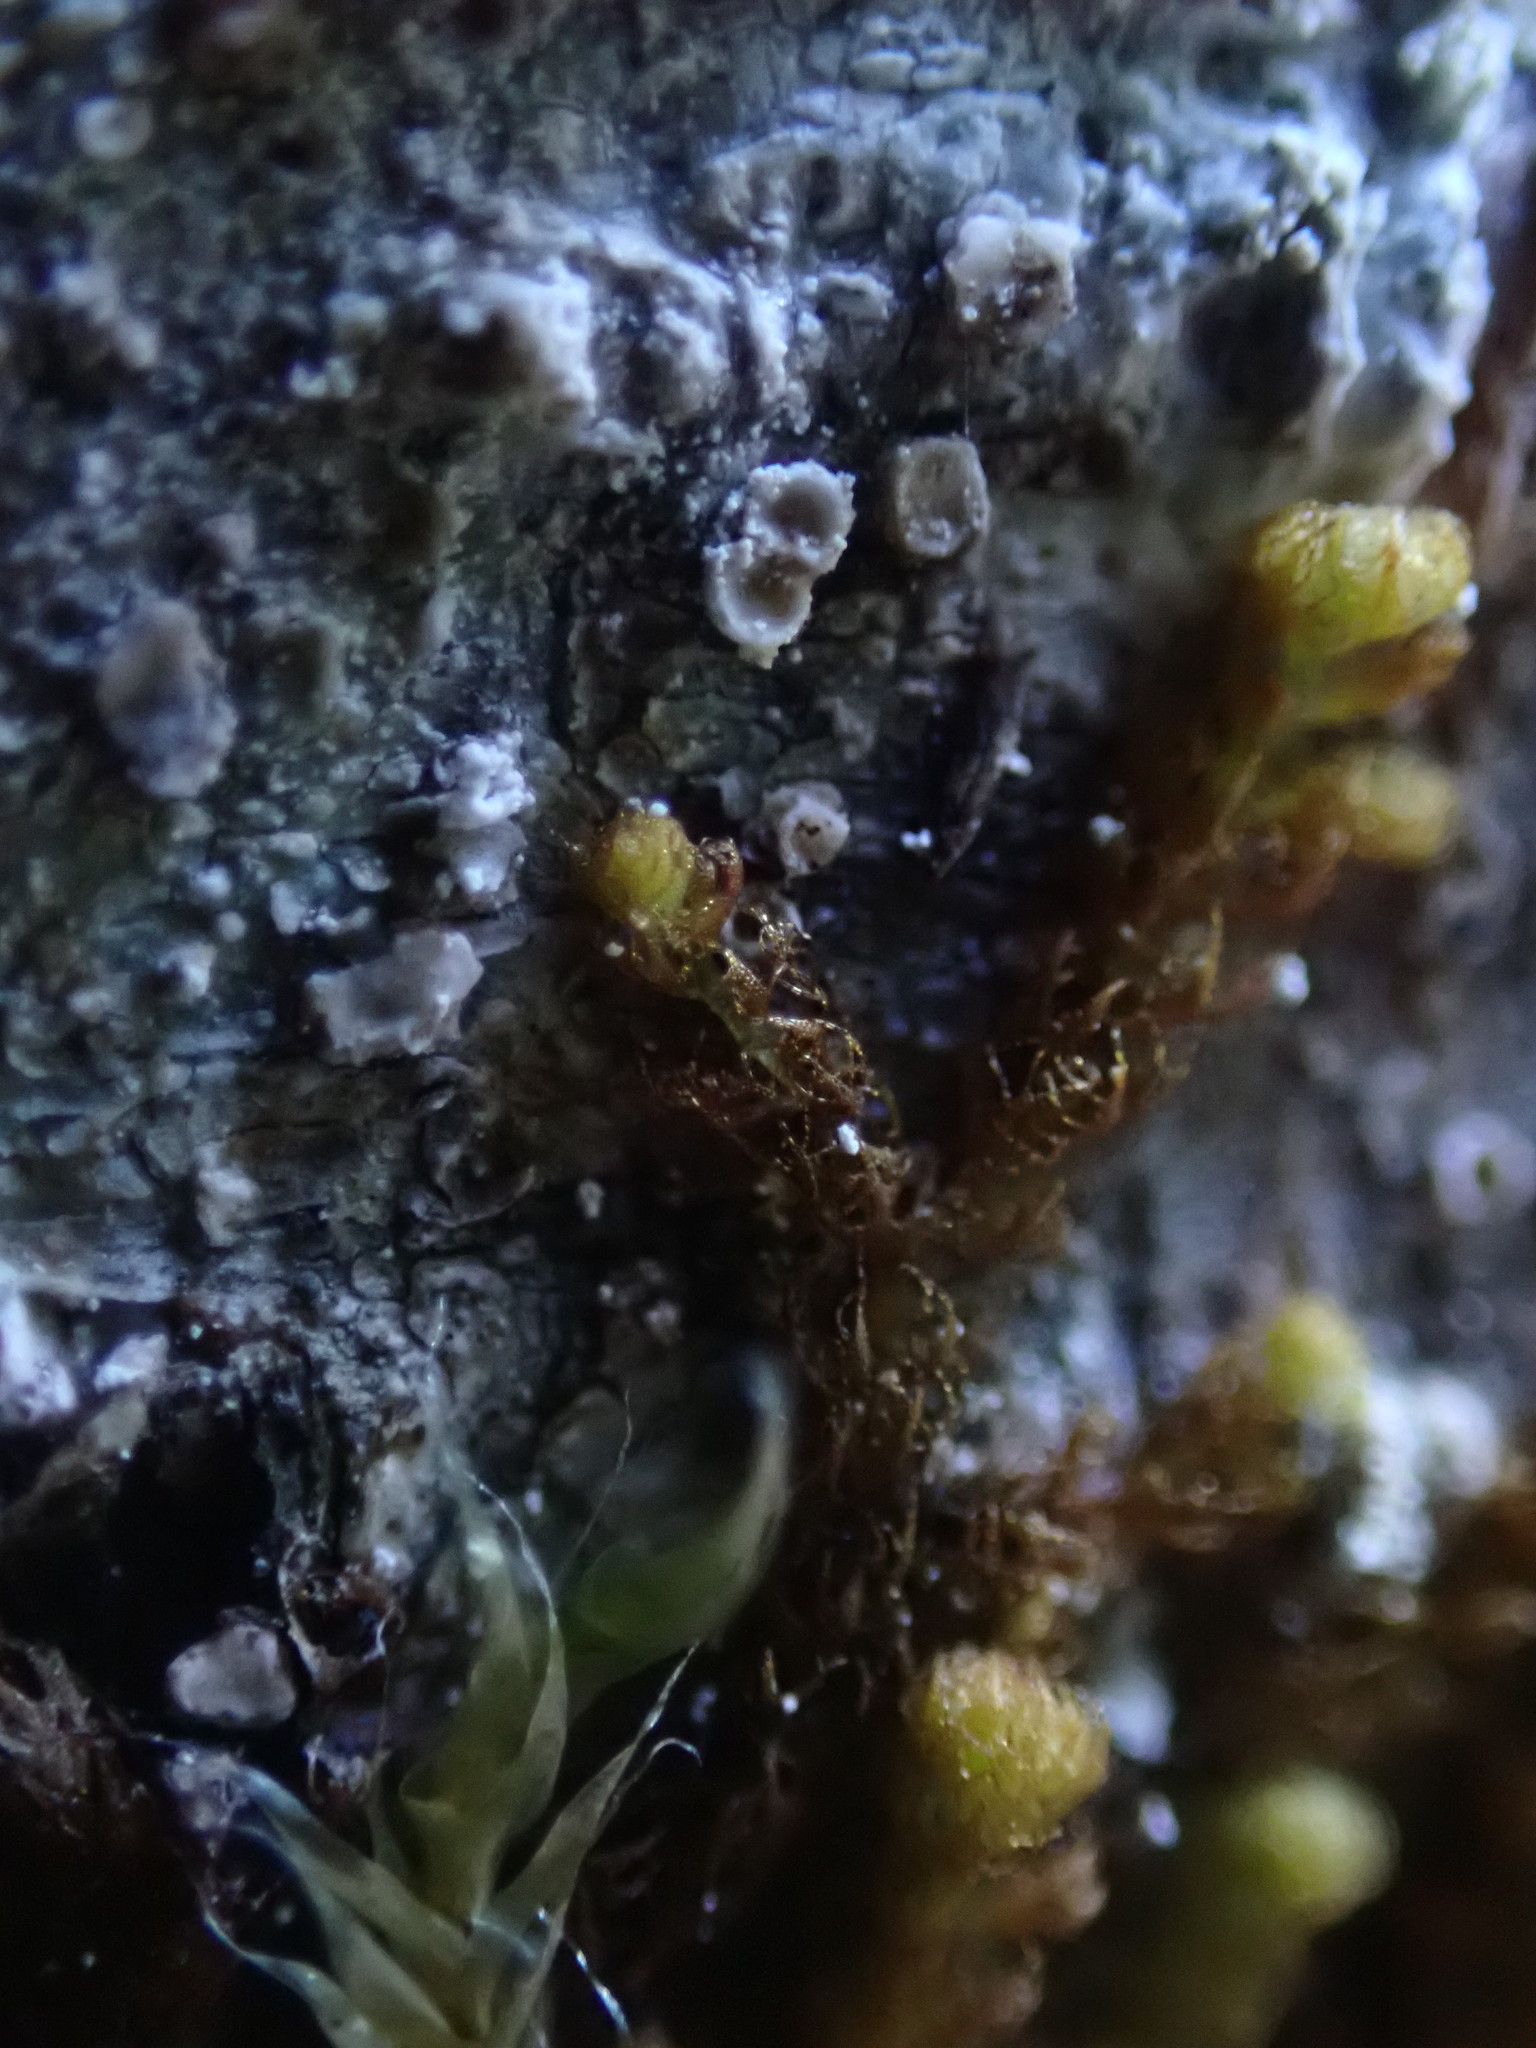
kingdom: Plantae
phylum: Marchantiophyta
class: Jungermanniopsida
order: Ptilidiales
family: Ptilidiaceae
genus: Ptilidium
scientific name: Ptilidium californicum
